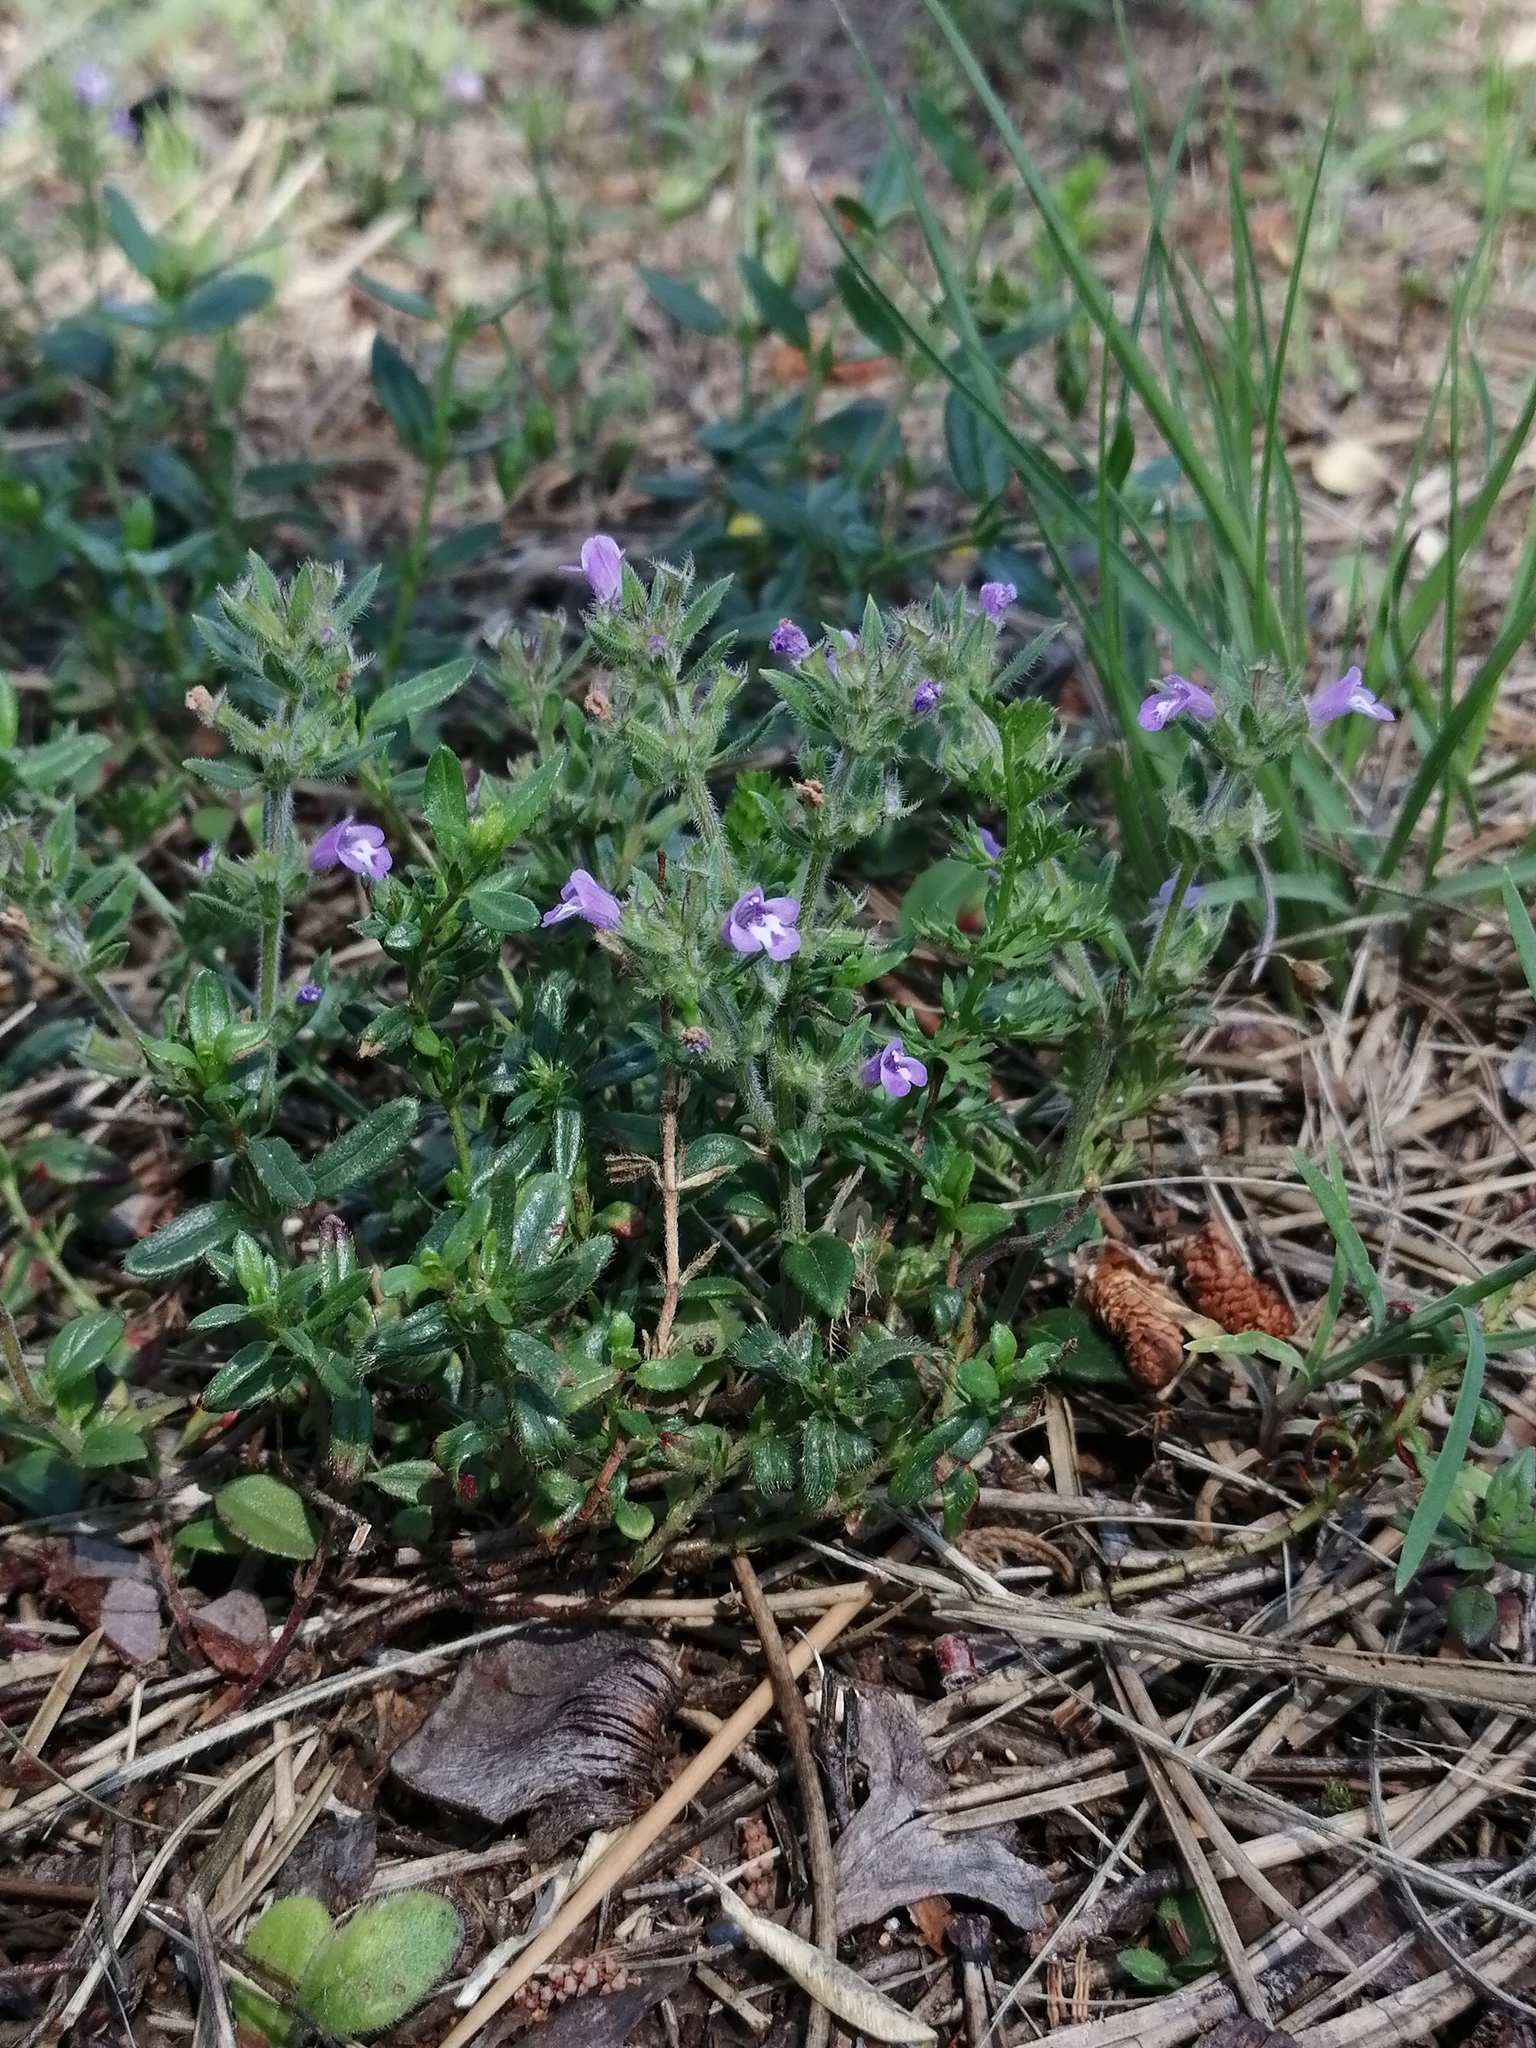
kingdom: Plantae
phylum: Tracheophyta
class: Magnoliopsida
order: Lamiales
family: Lamiaceae
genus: Clinopodium
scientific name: Clinopodium acinos
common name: Basil thyme
